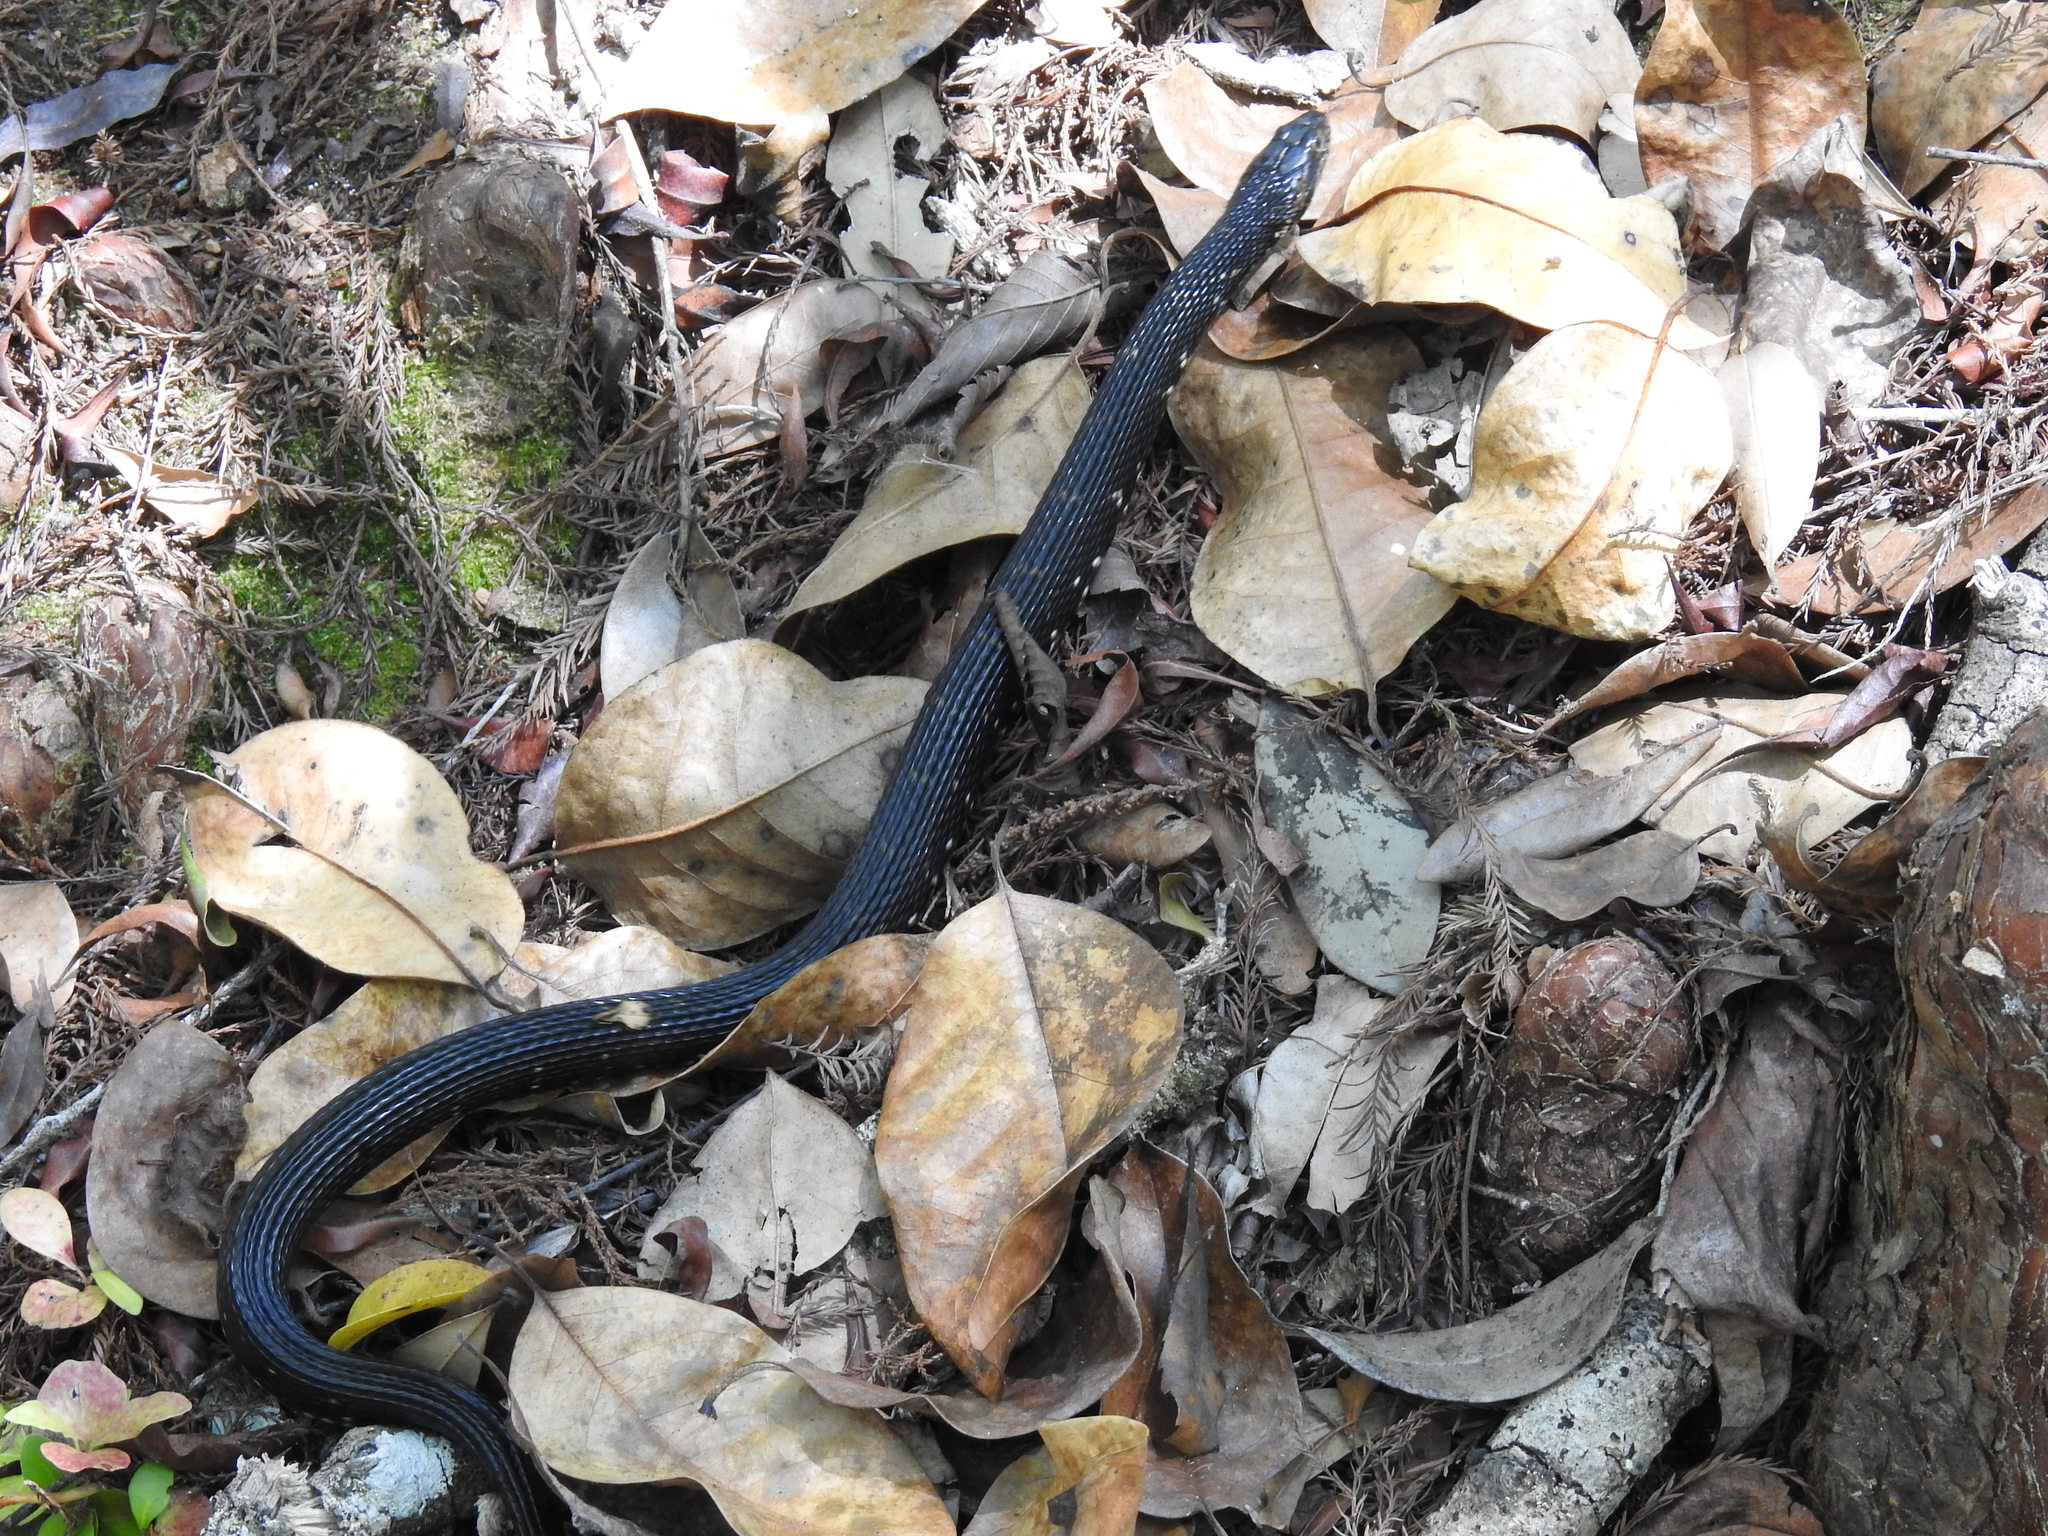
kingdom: Animalia
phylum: Chordata
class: Squamata
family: Colubridae
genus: Nerodia
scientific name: Nerodia fasciata
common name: Southern water snake
